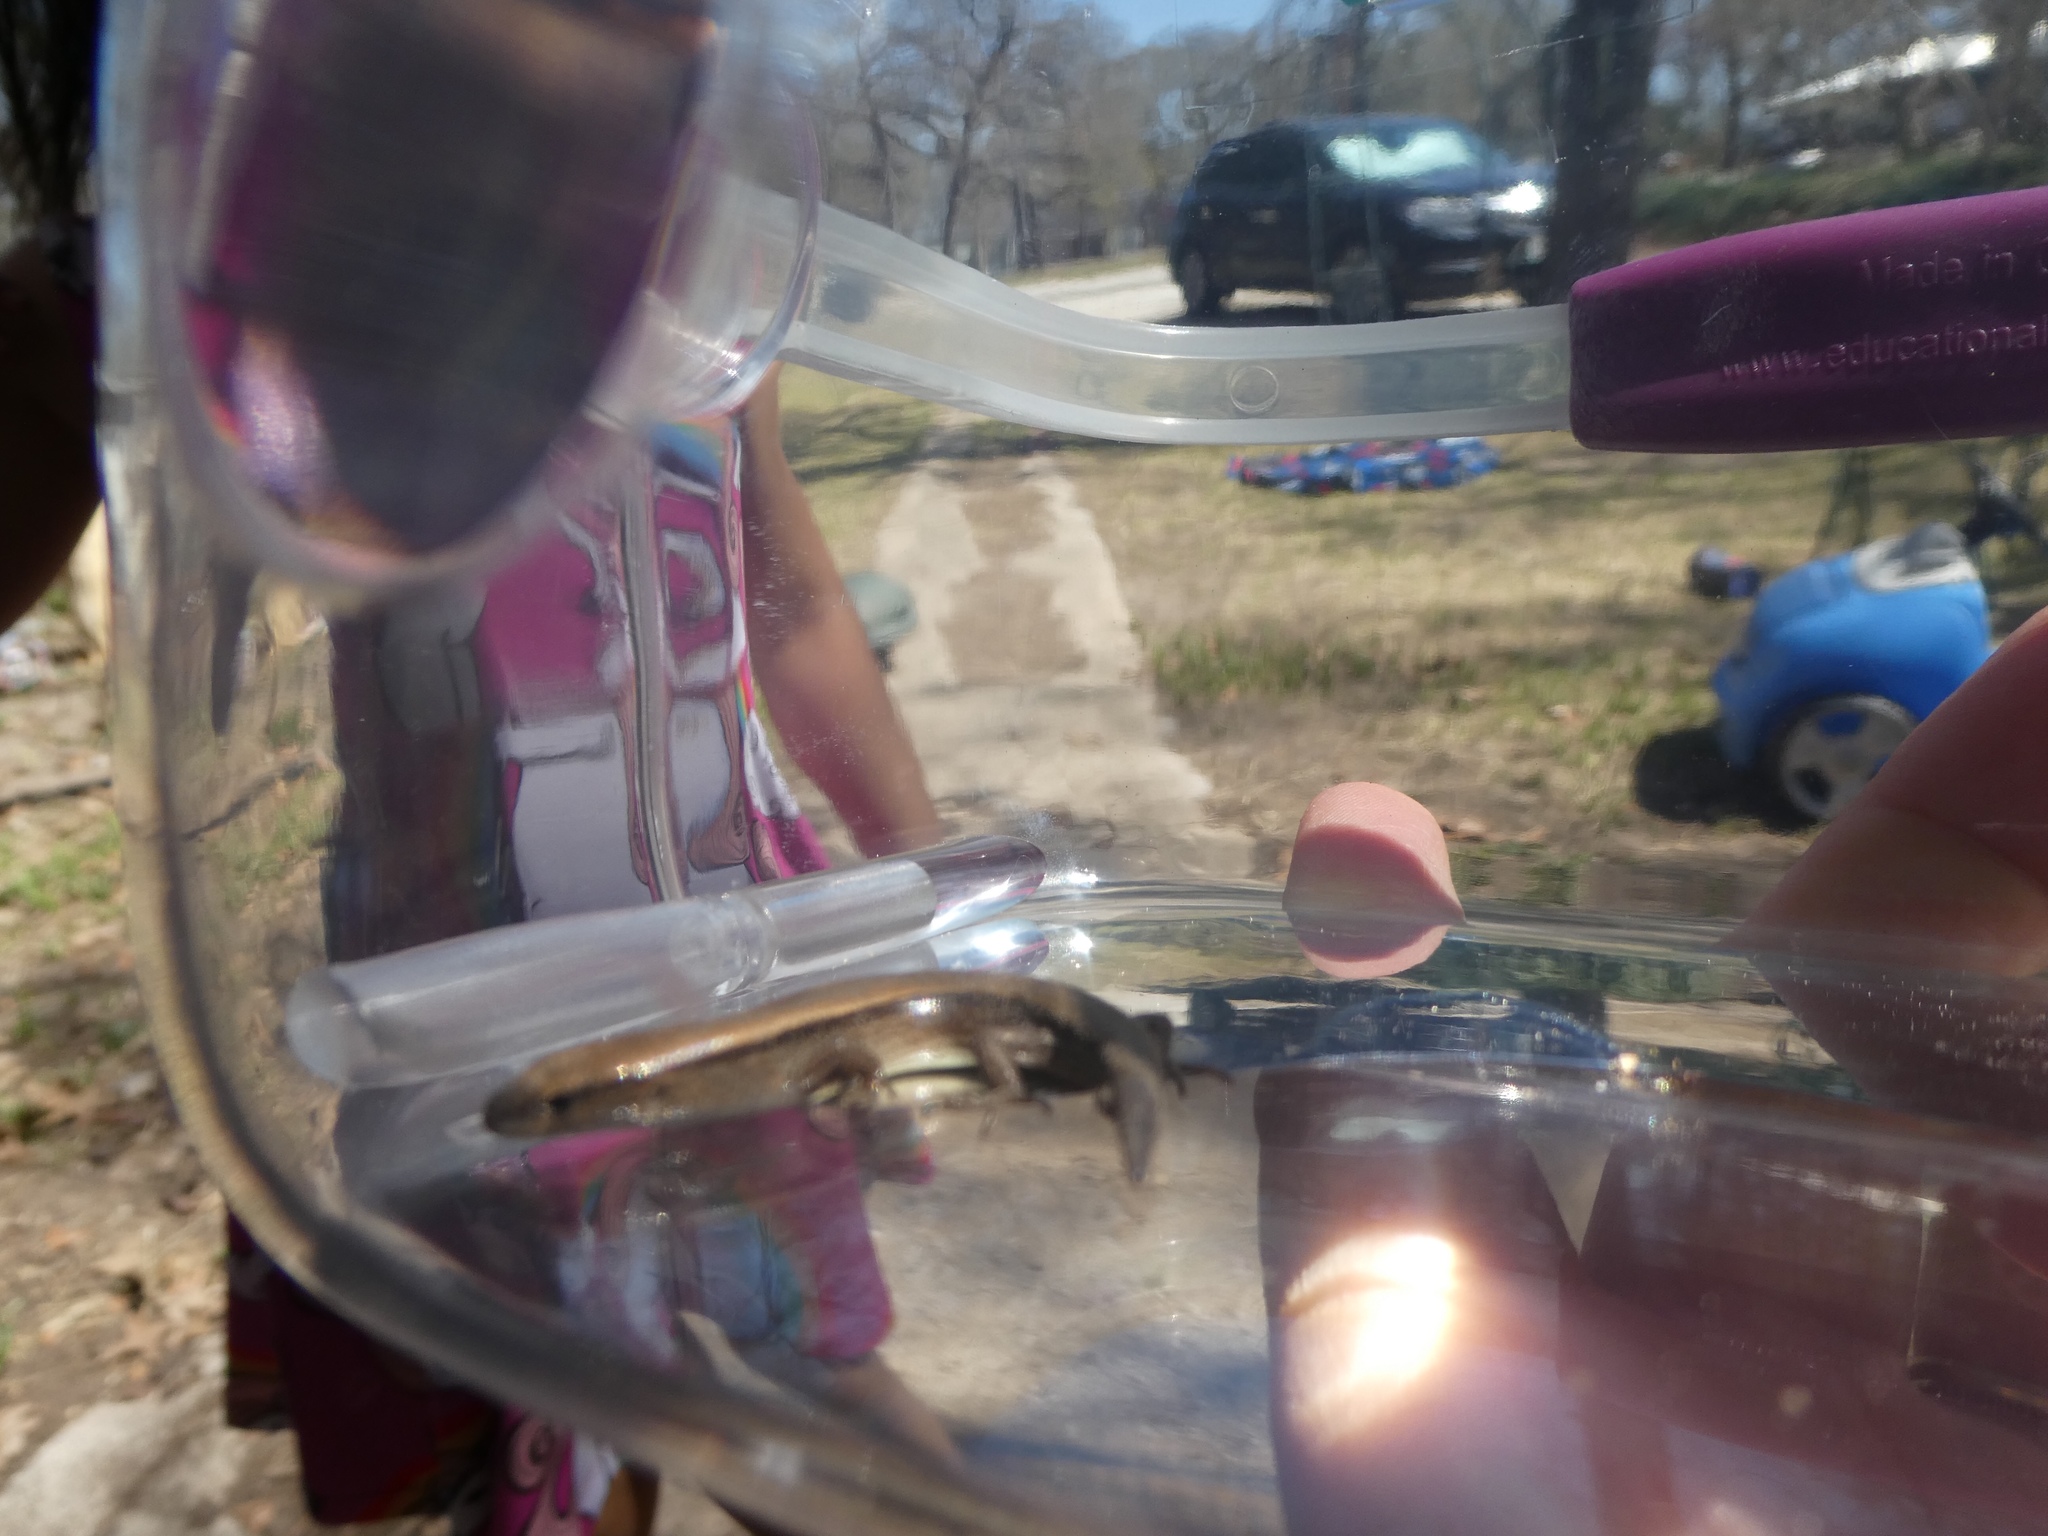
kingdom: Animalia
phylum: Chordata
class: Squamata
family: Scincidae
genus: Scincella
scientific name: Scincella lateralis
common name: Ground skink
